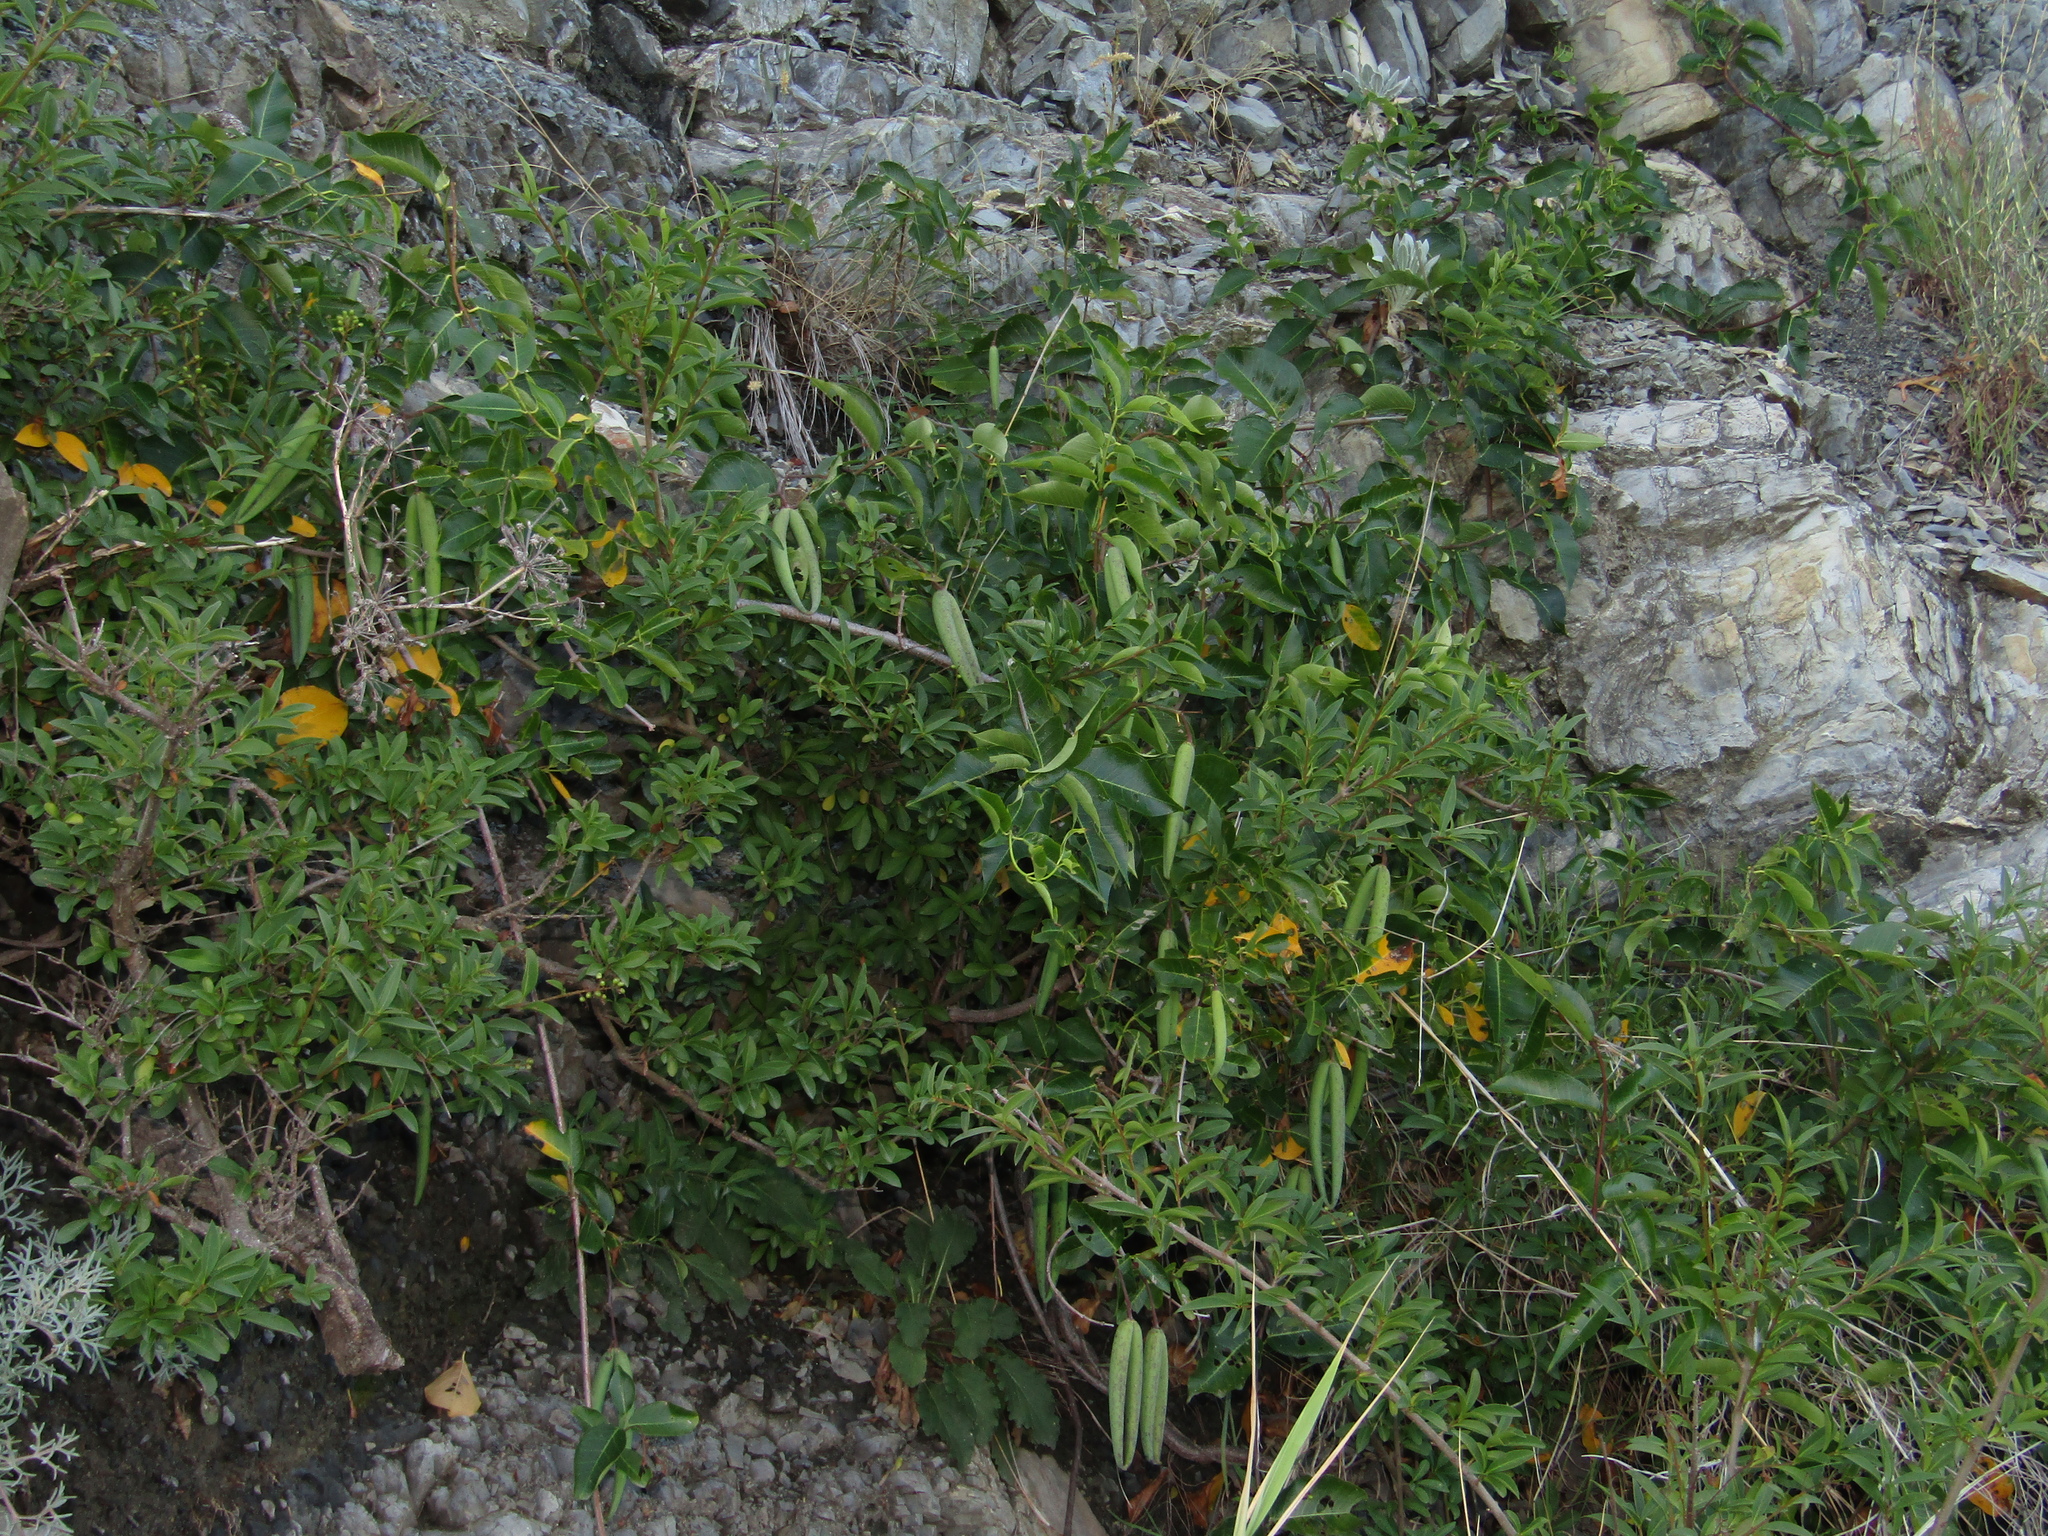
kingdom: Plantae
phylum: Tracheophyta
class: Magnoliopsida
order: Gentianales
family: Apocynaceae
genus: Periploca
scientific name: Periploca graeca
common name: Silkvine
